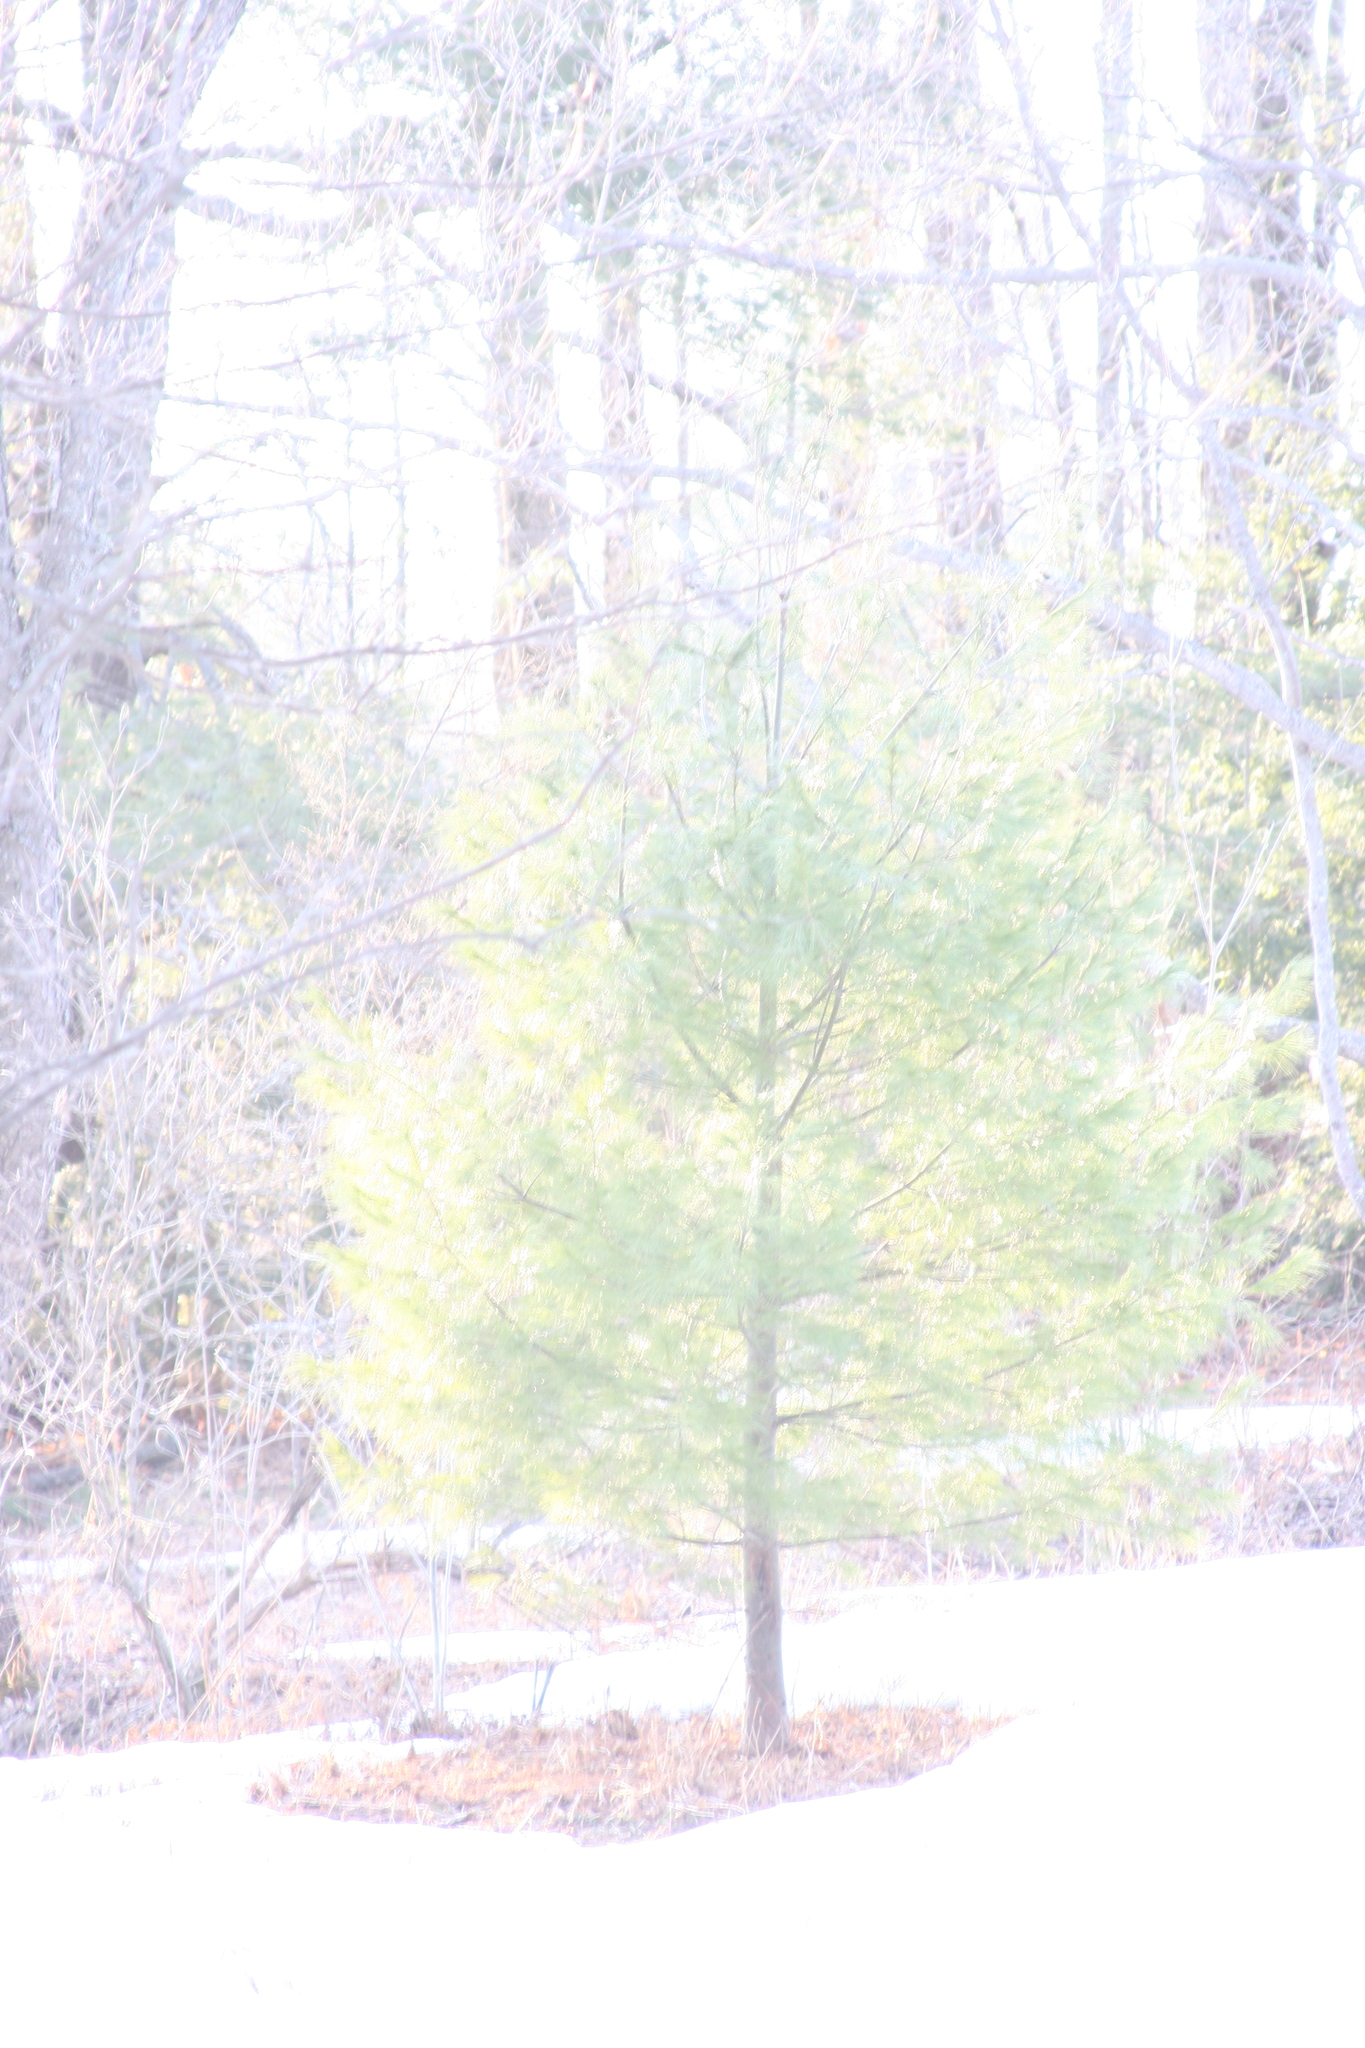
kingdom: Plantae
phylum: Tracheophyta
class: Pinopsida
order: Pinales
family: Pinaceae
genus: Pinus
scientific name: Pinus strobus
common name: Weymouth pine
